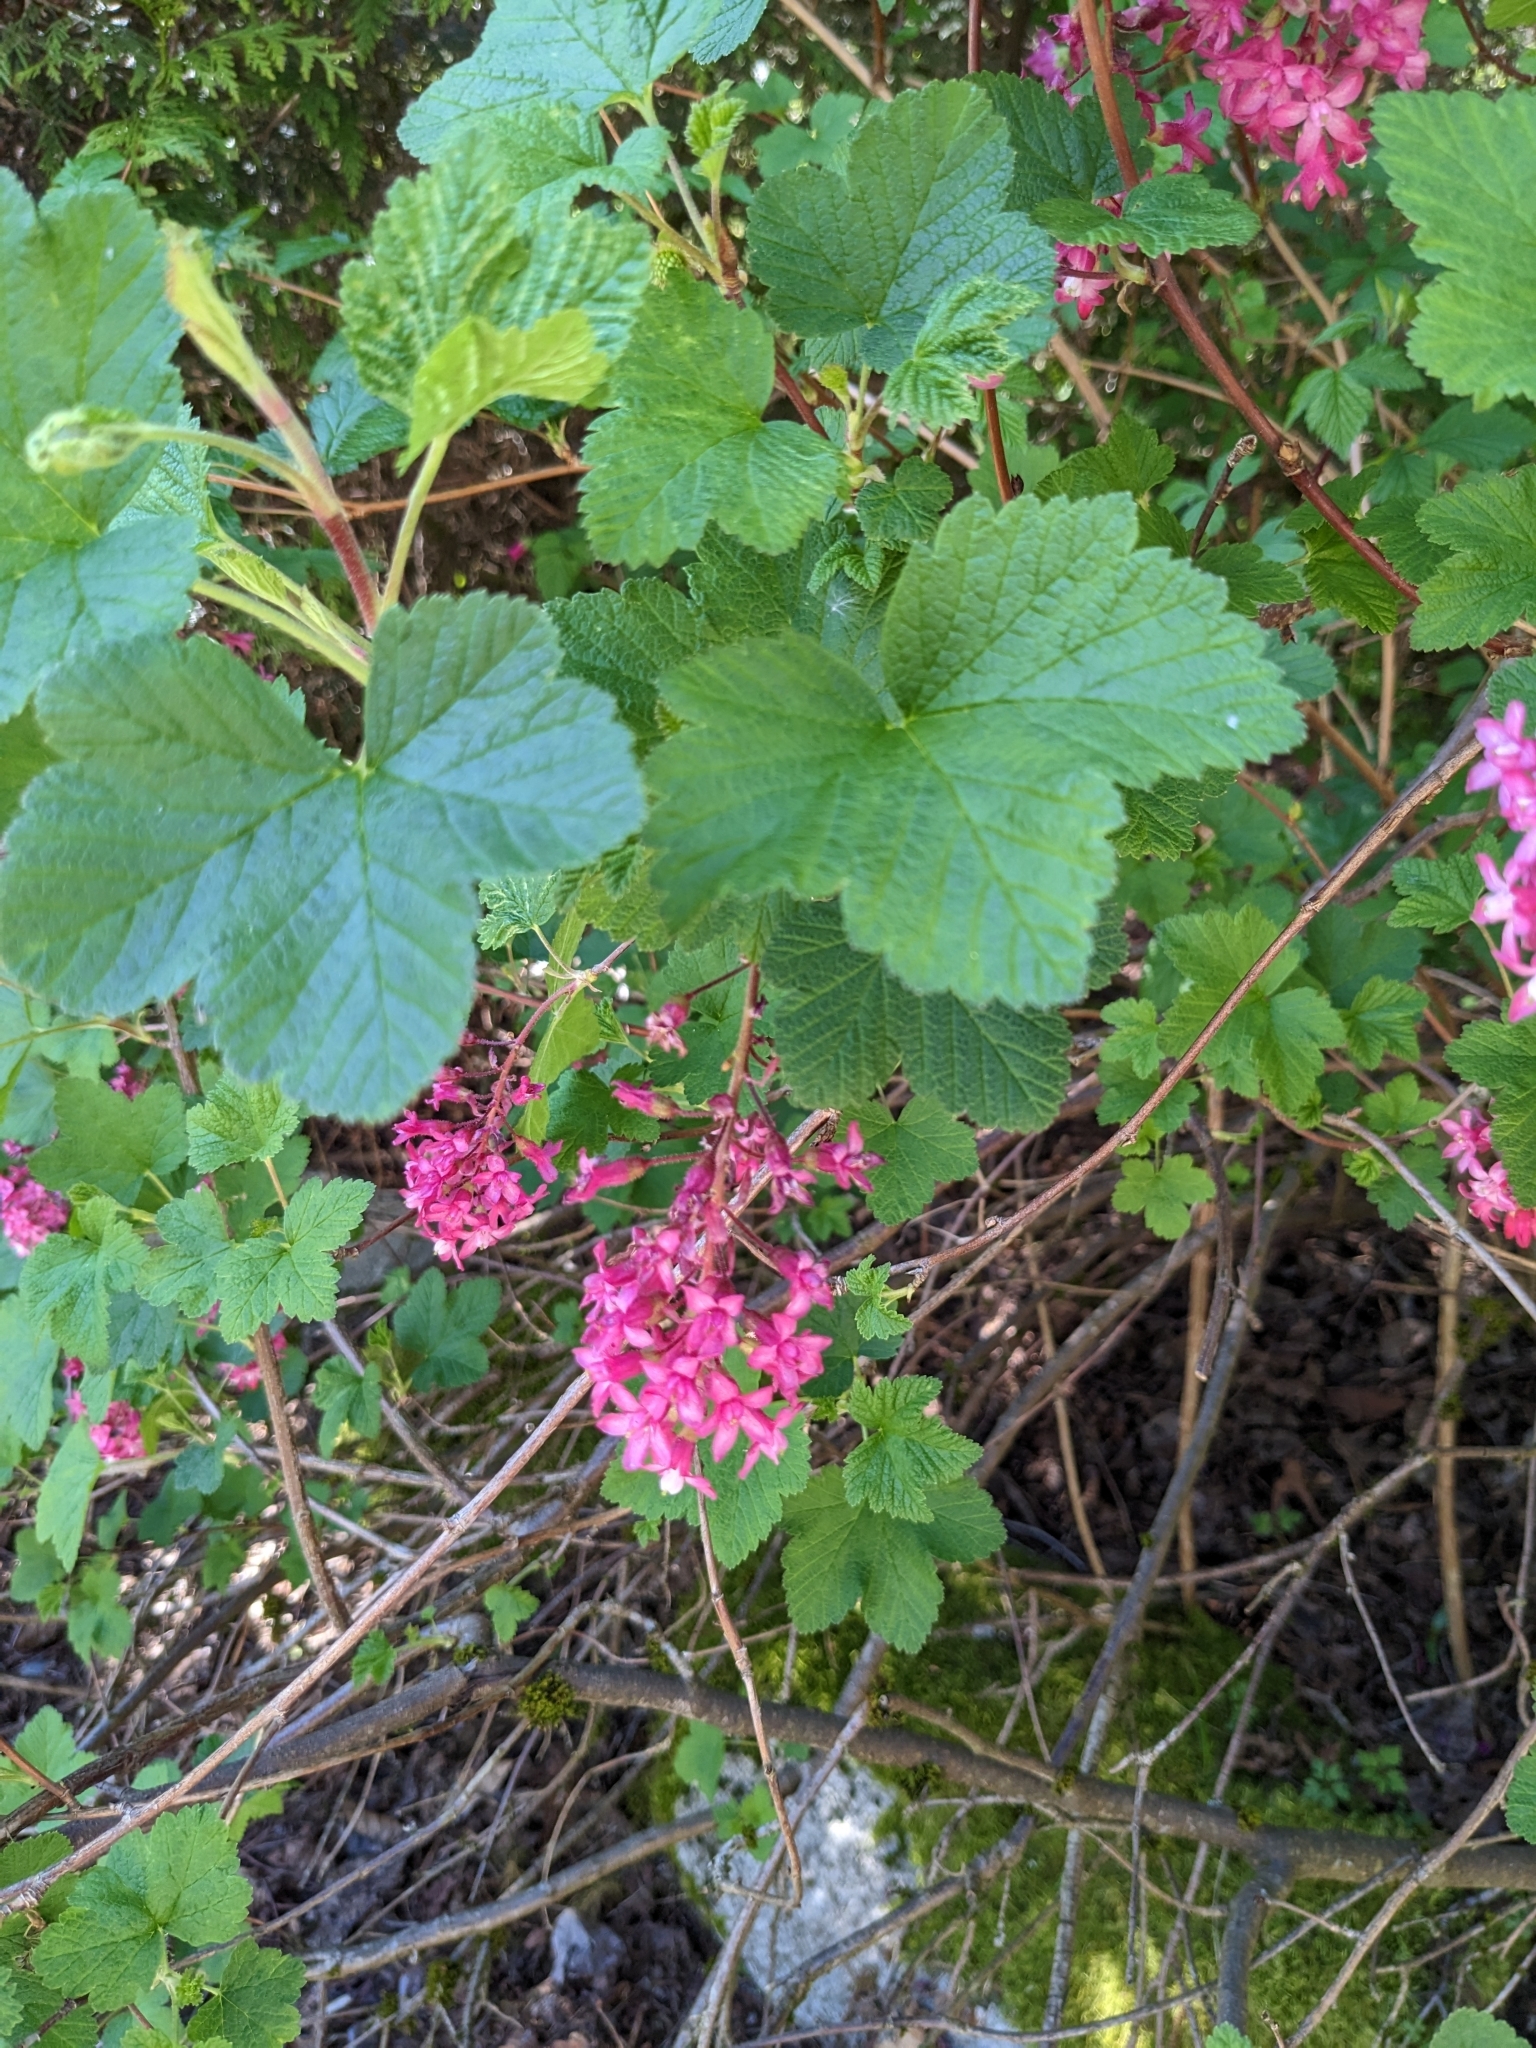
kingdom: Plantae
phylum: Tracheophyta
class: Magnoliopsida
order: Saxifragales
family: Grossulariaceae
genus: Ribes
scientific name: Ribes sanguineum
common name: Flowering currant
